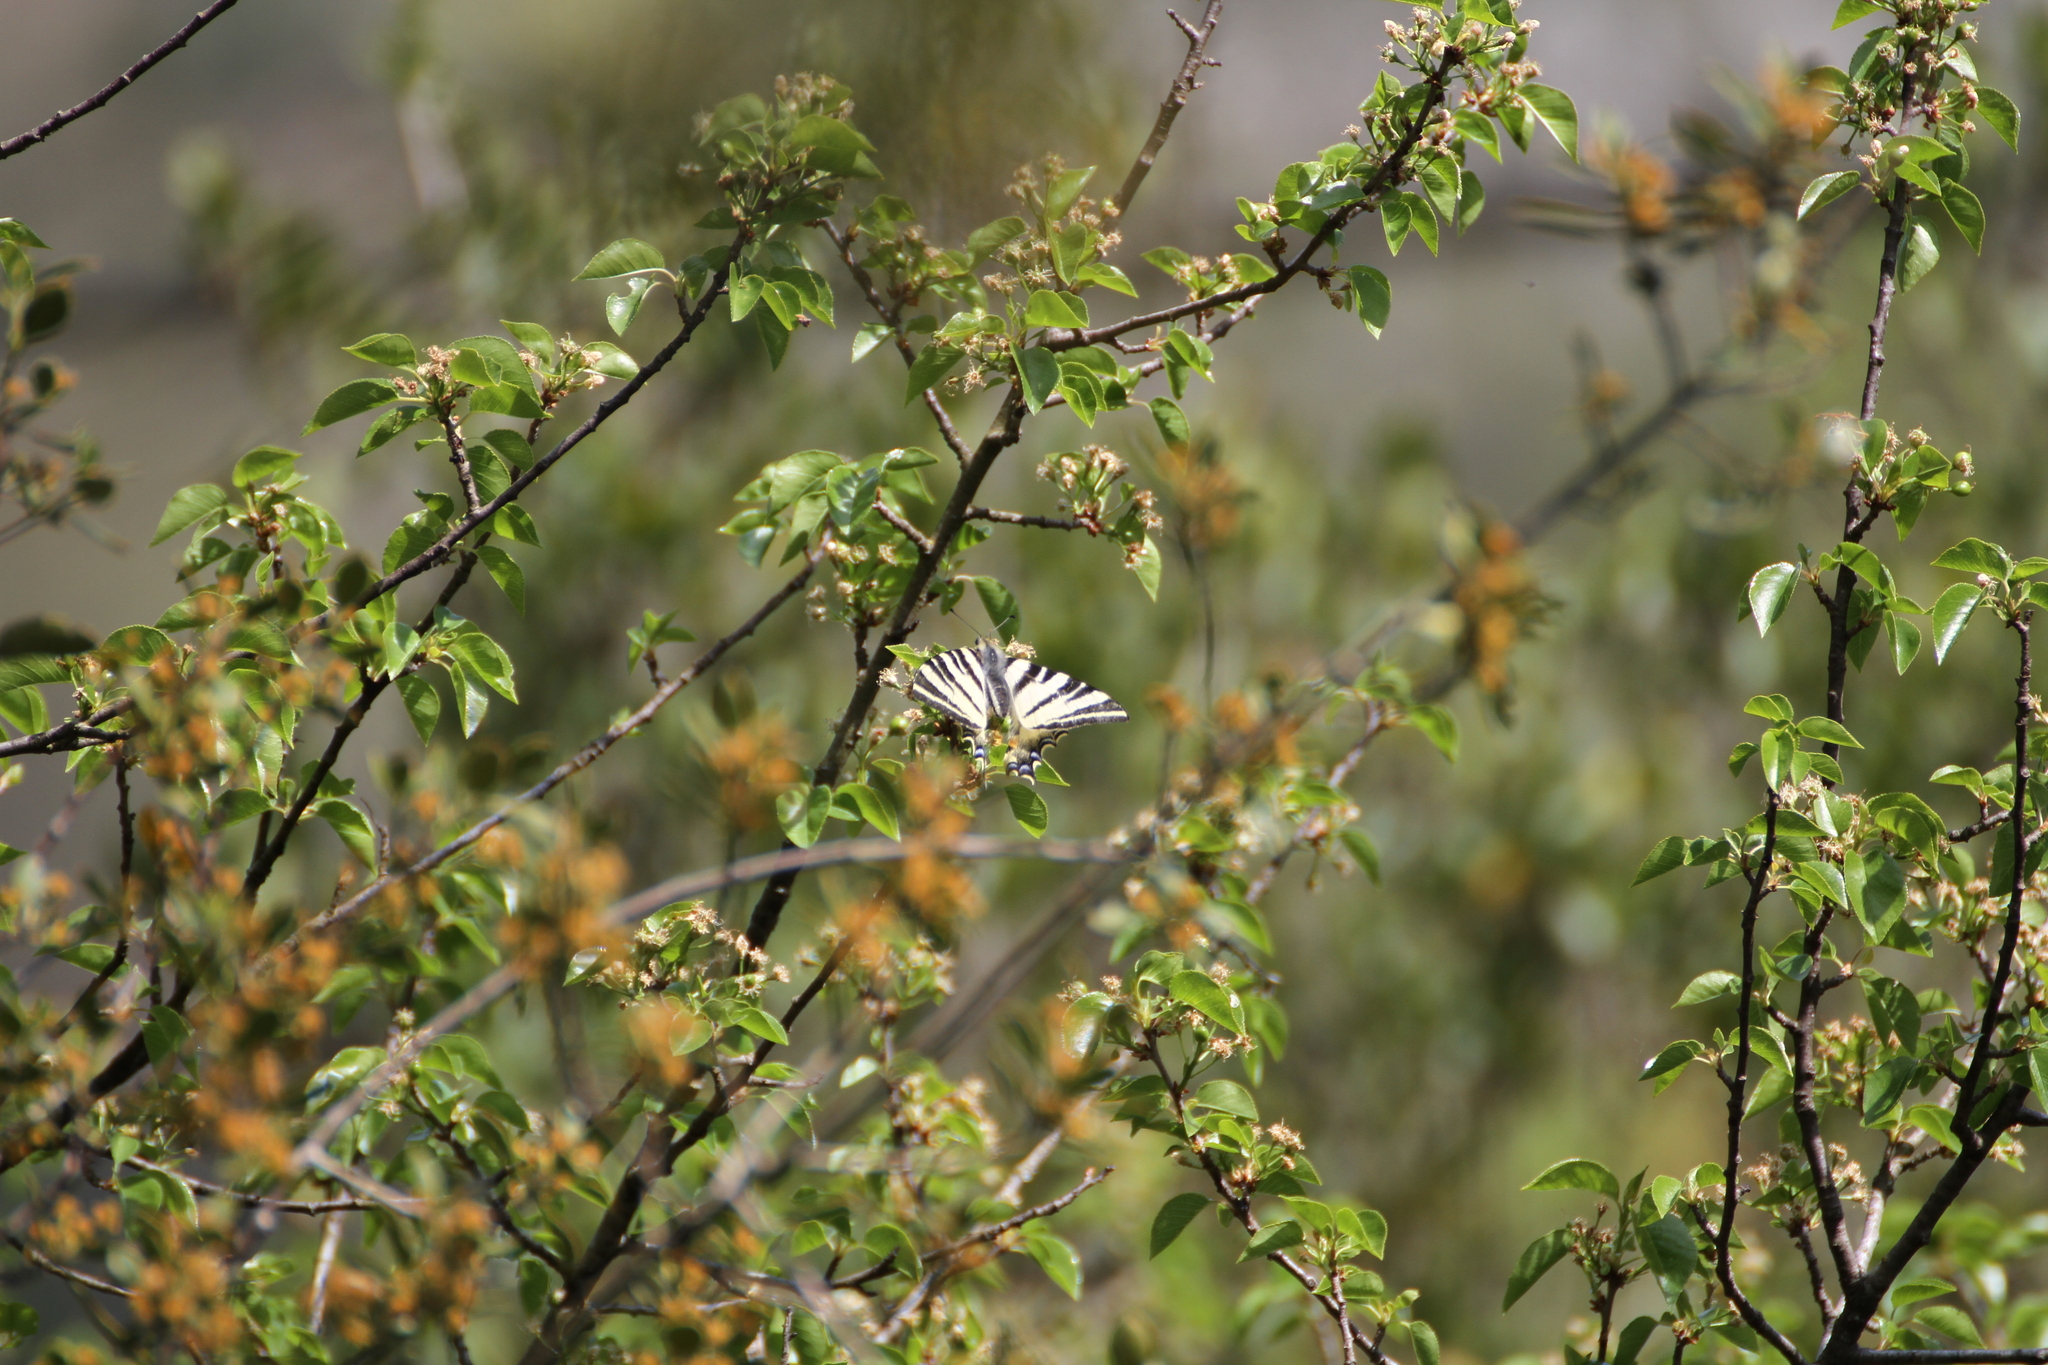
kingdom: Animalia
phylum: Arthropoda
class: Insecta
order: Lepidoptera
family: Papilionidae
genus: Iphiclides
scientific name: Iphiclides podalirius
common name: Scarce swallowtail
